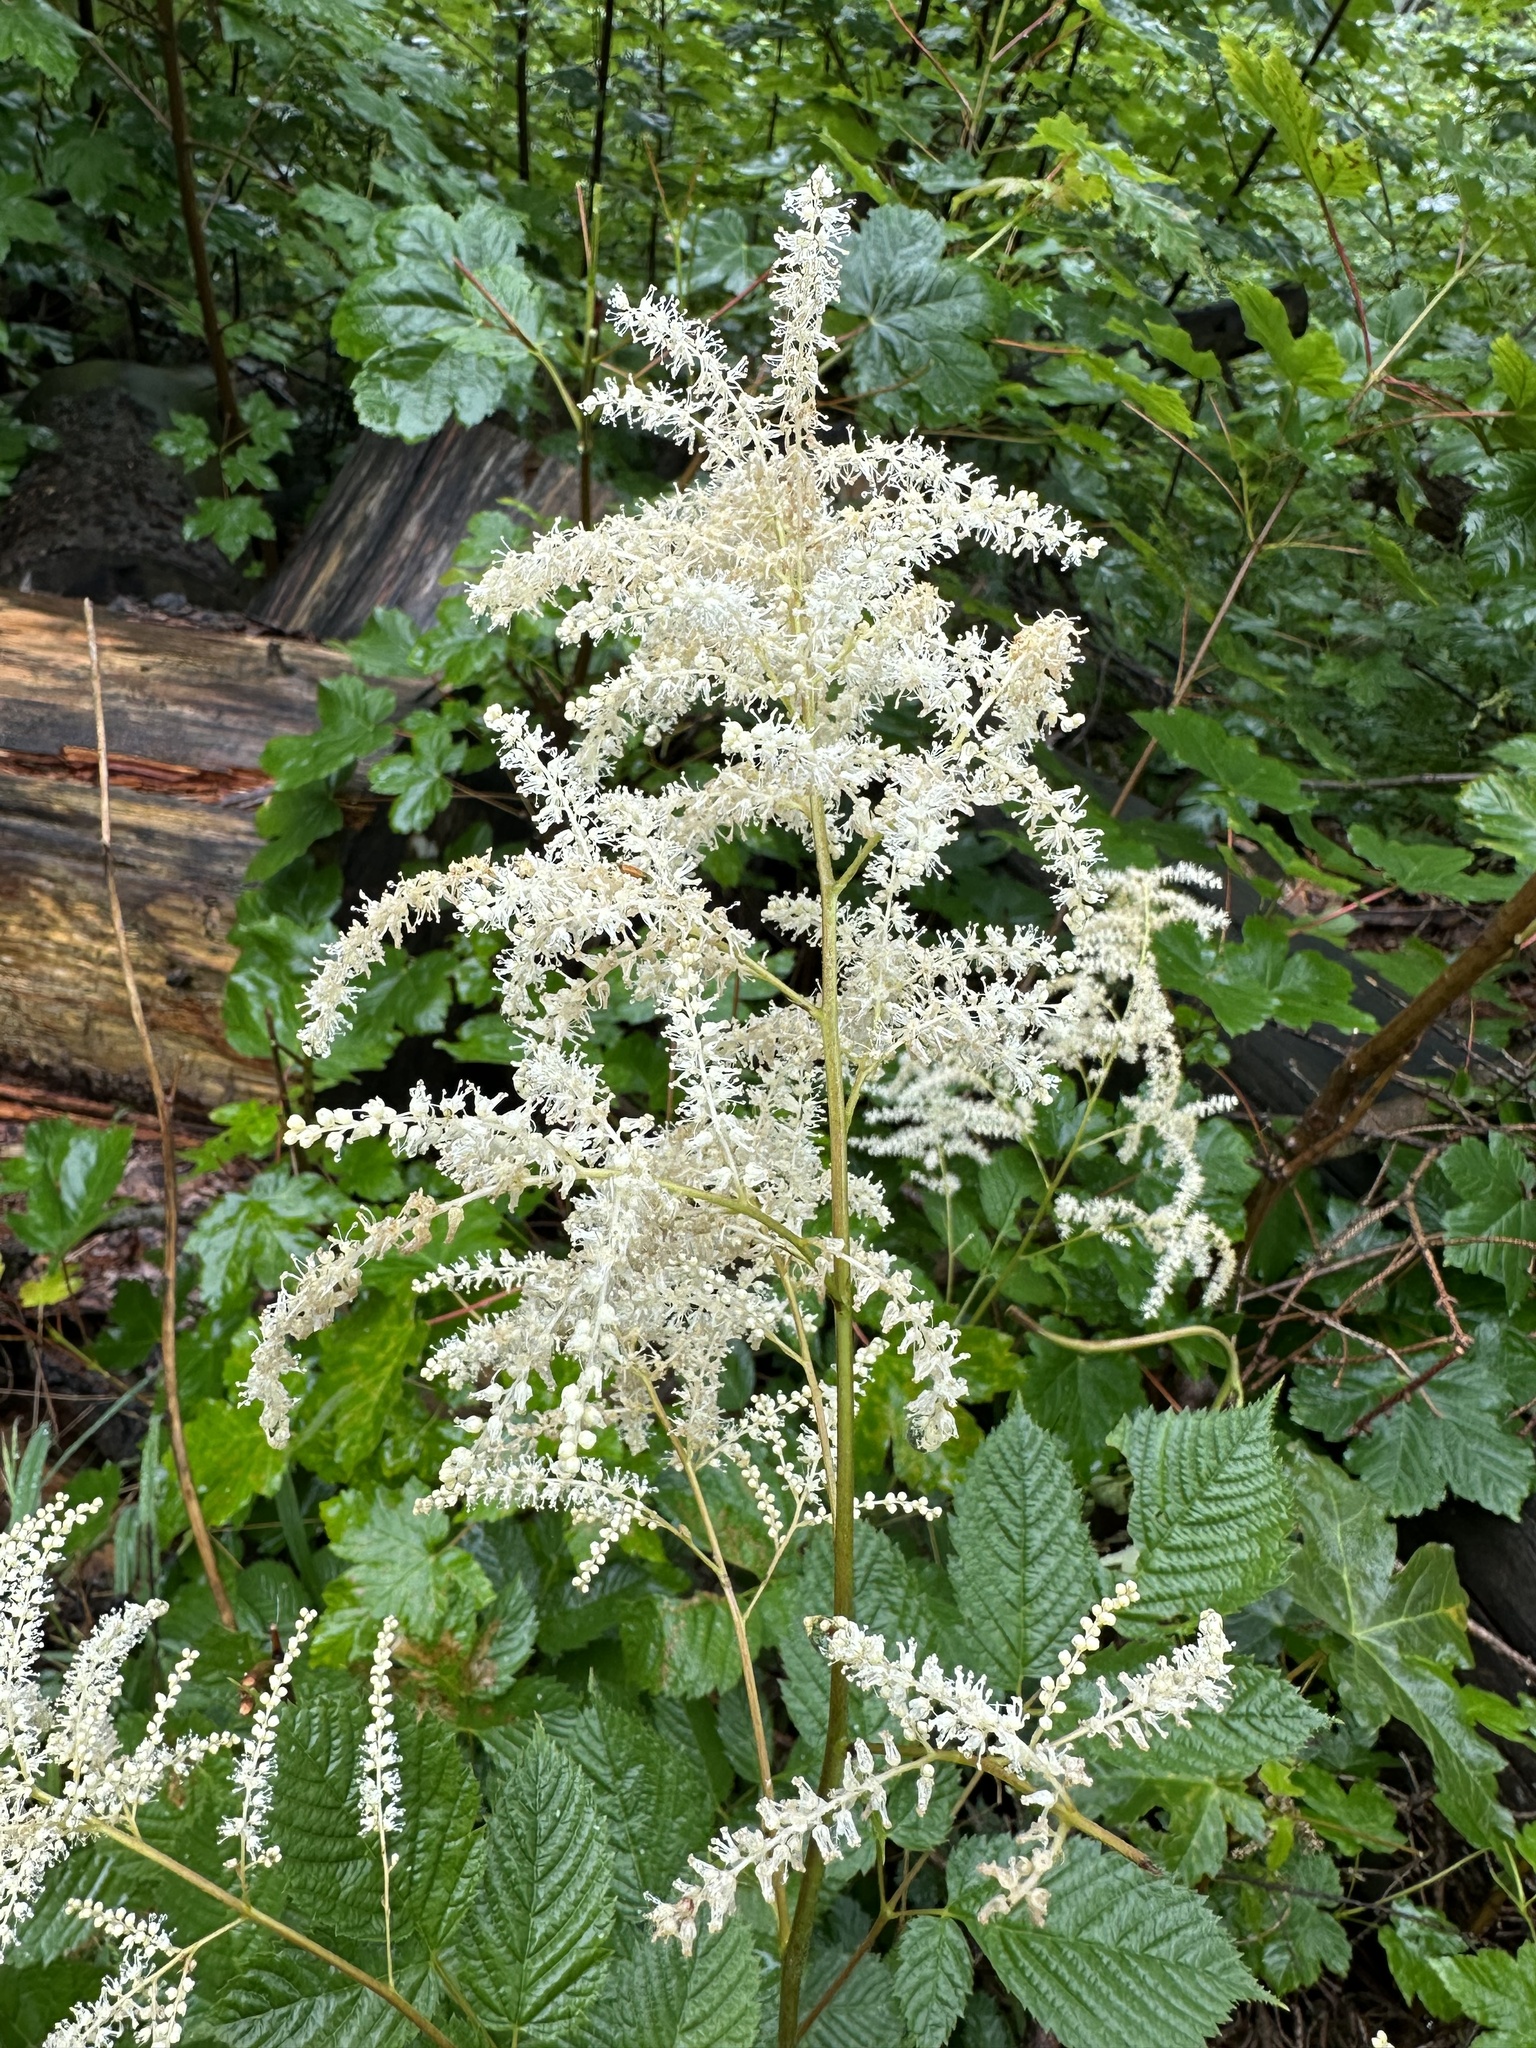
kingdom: Plantae
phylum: Tracheophyta
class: Magnoliopsida
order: Rosales
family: Rosaceae
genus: Aruncus
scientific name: Aruncus dioicus
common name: Buck's-beard
